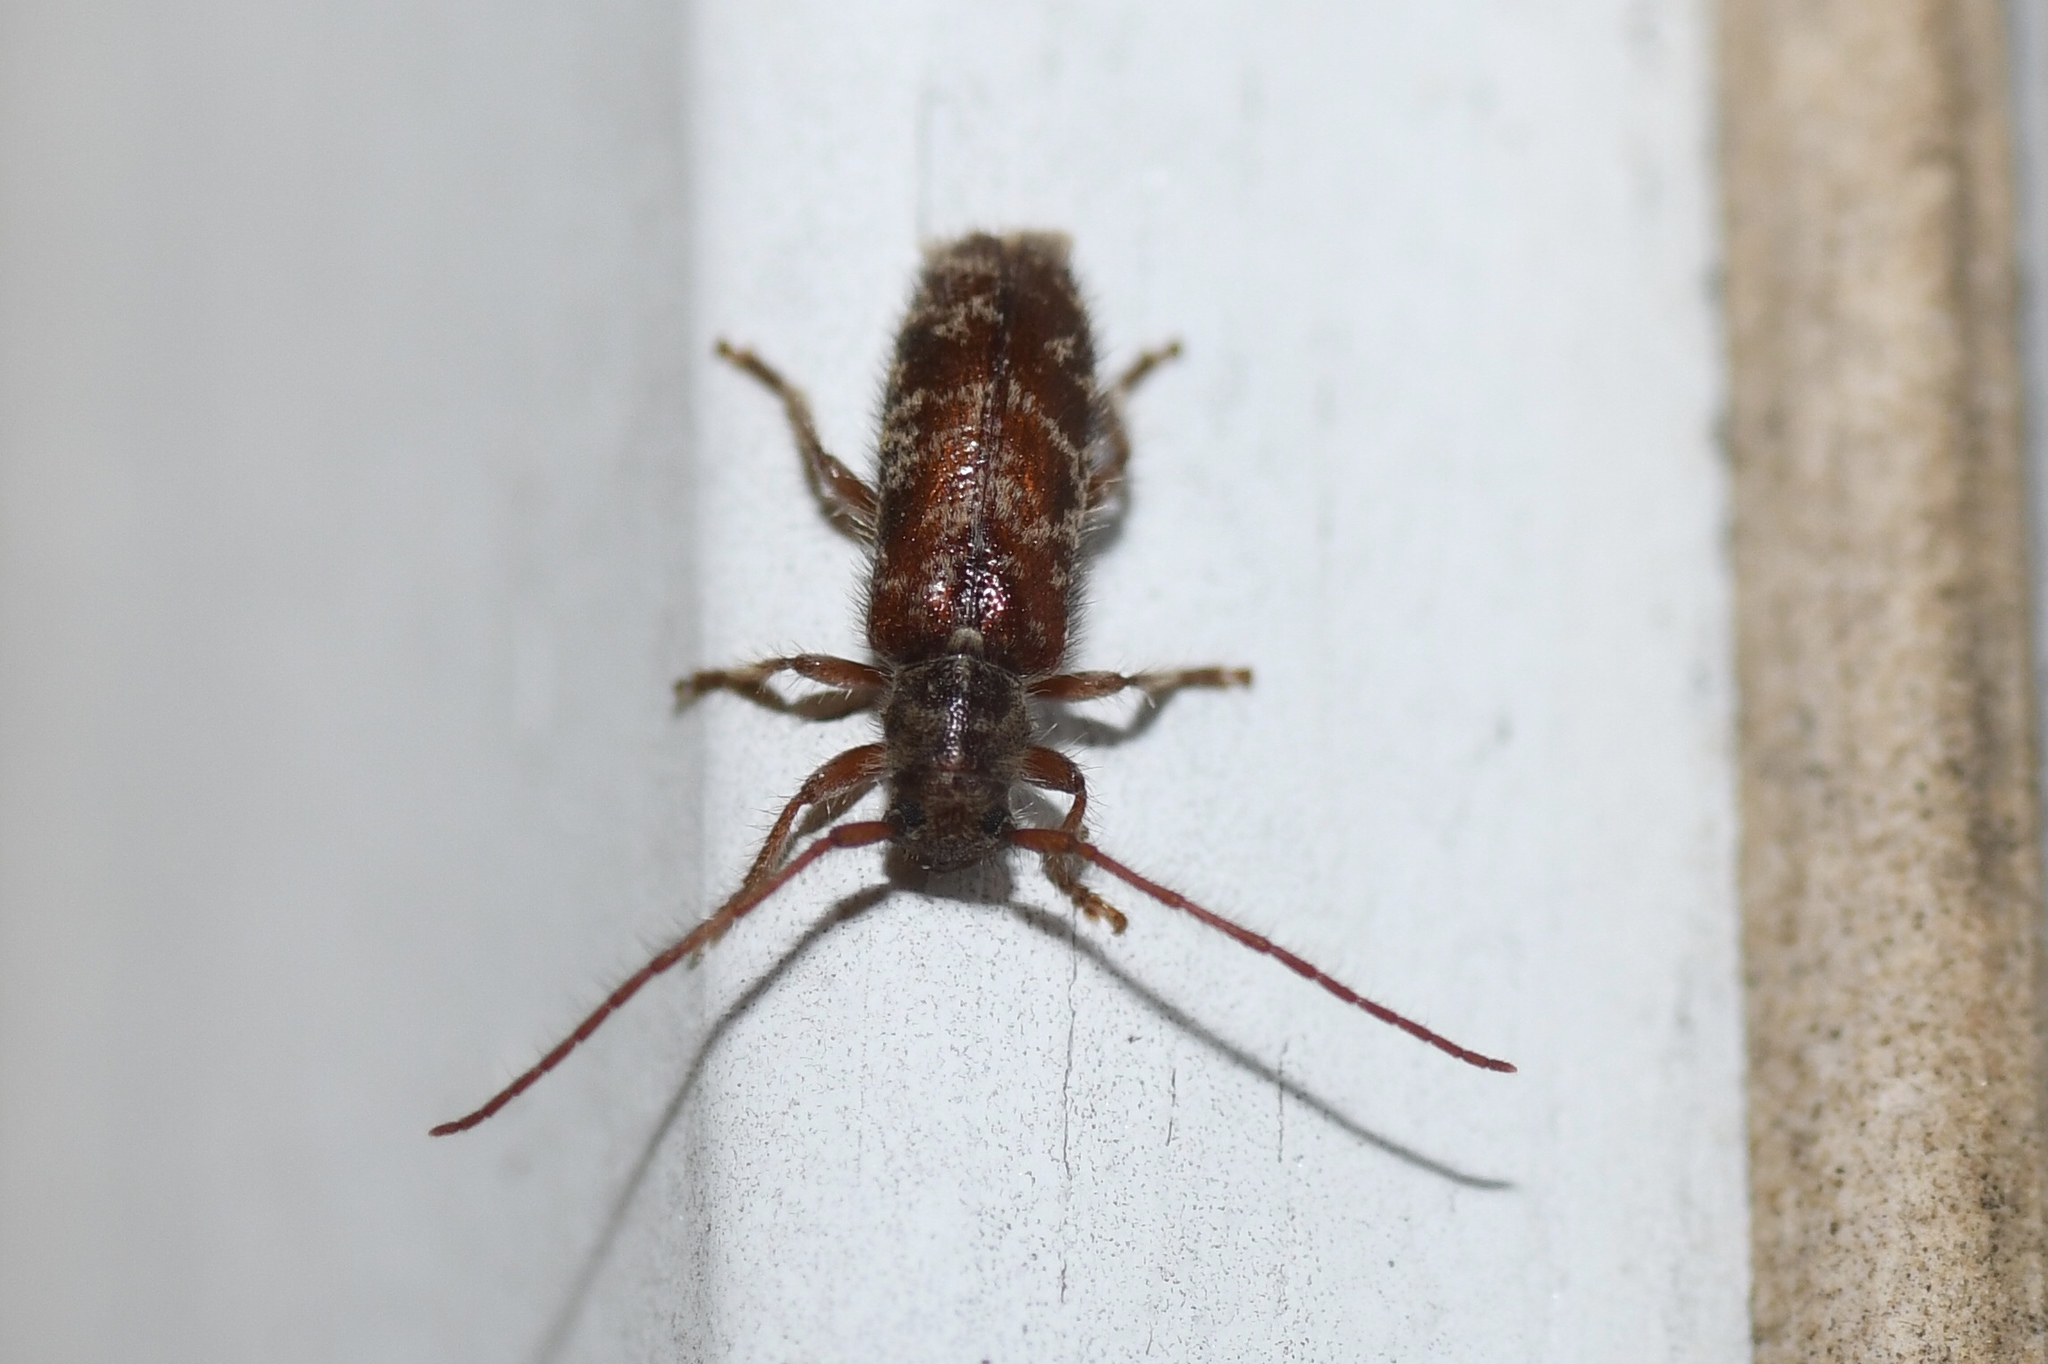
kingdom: Animalia
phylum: Arthropoda
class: Insecta
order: Coleoptera
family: Cerambycidae
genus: Eupogonius
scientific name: Eupogonius tomentosus
